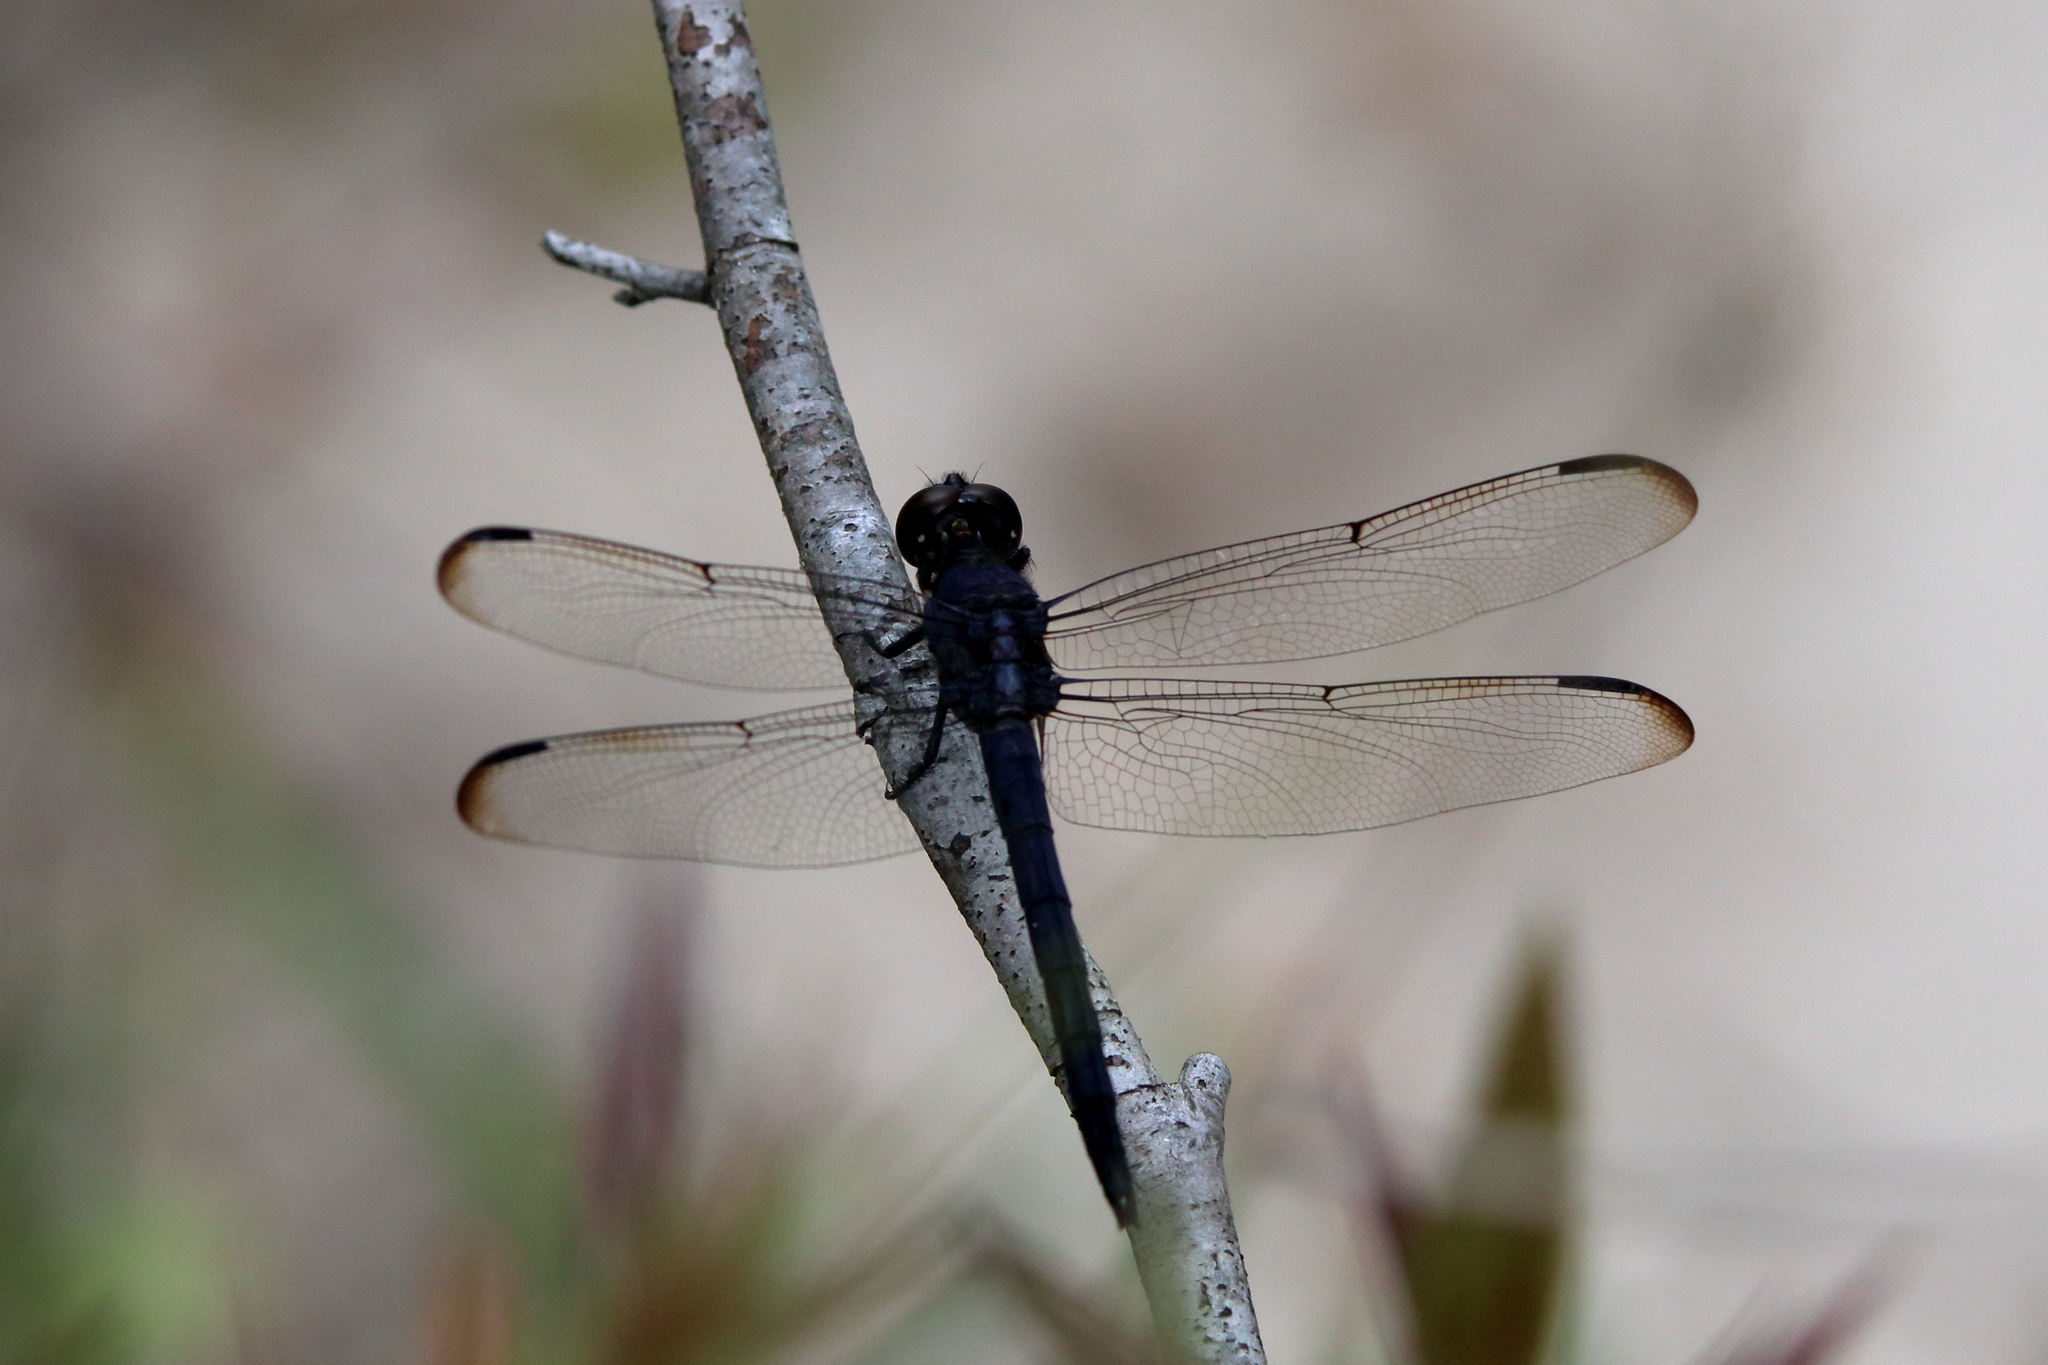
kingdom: Animalia
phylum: Arthropoda
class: Insecta
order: Odonata
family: Libellulidae
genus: Libellula
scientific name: Libellula incesta
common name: Slaty skimmer
